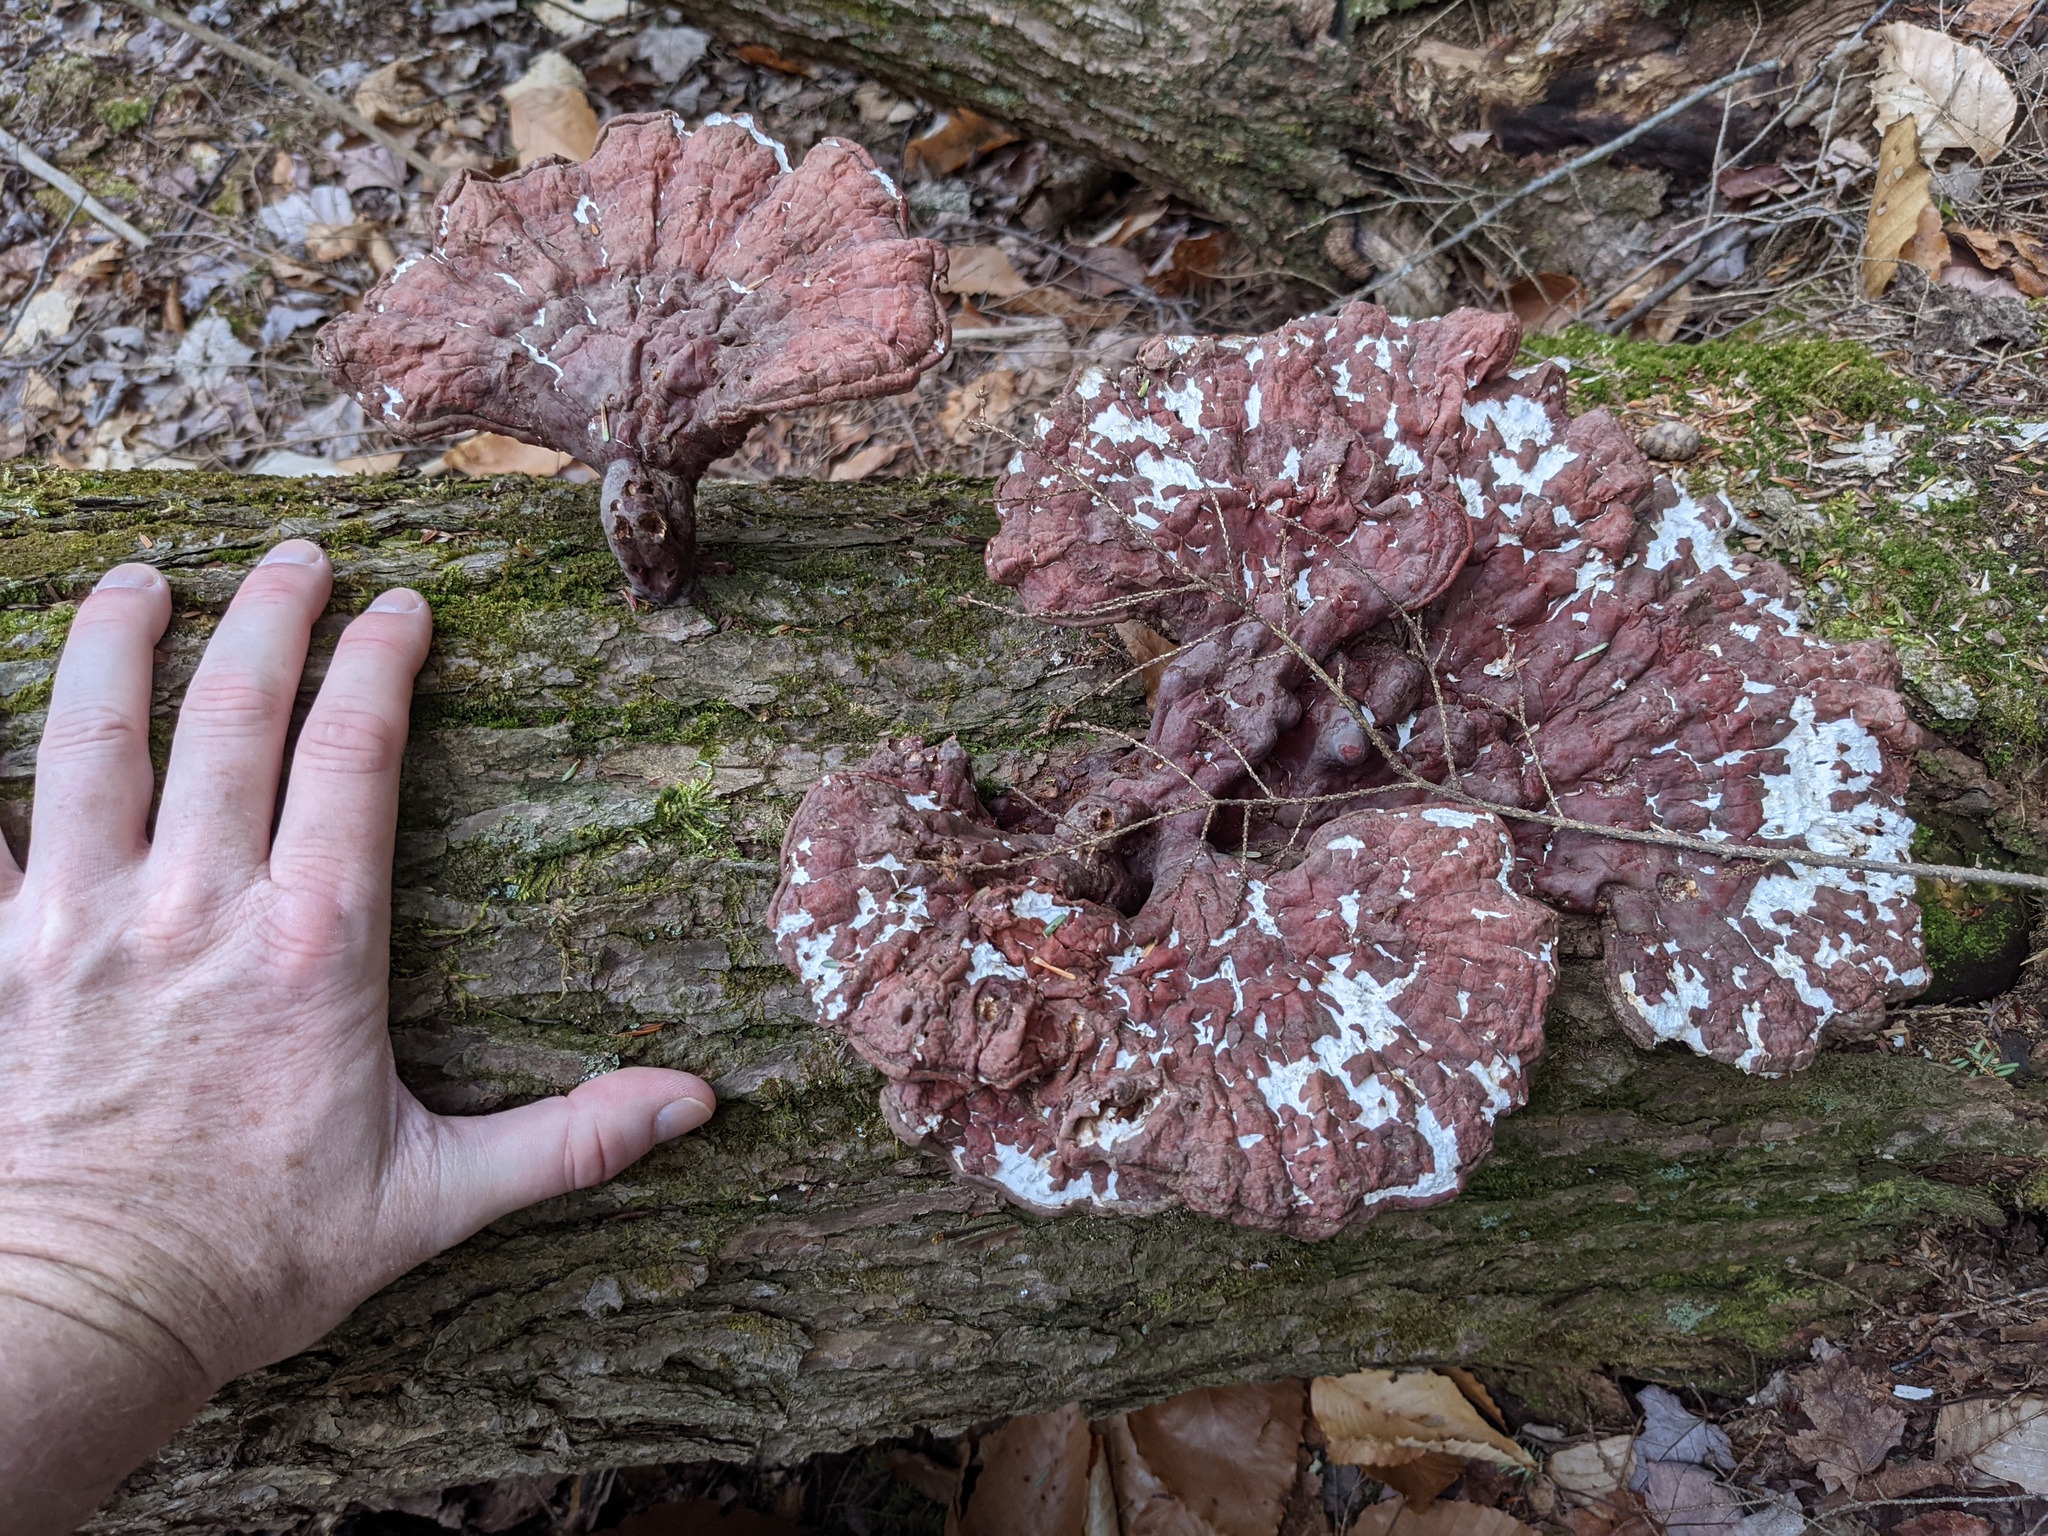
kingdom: Fungi
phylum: Basidiomycota
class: Agaricomycetes
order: Polyporales
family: Polyporaceae
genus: Ganoderma
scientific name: Ganoderma tsugae
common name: Hemlock varnish shelf
